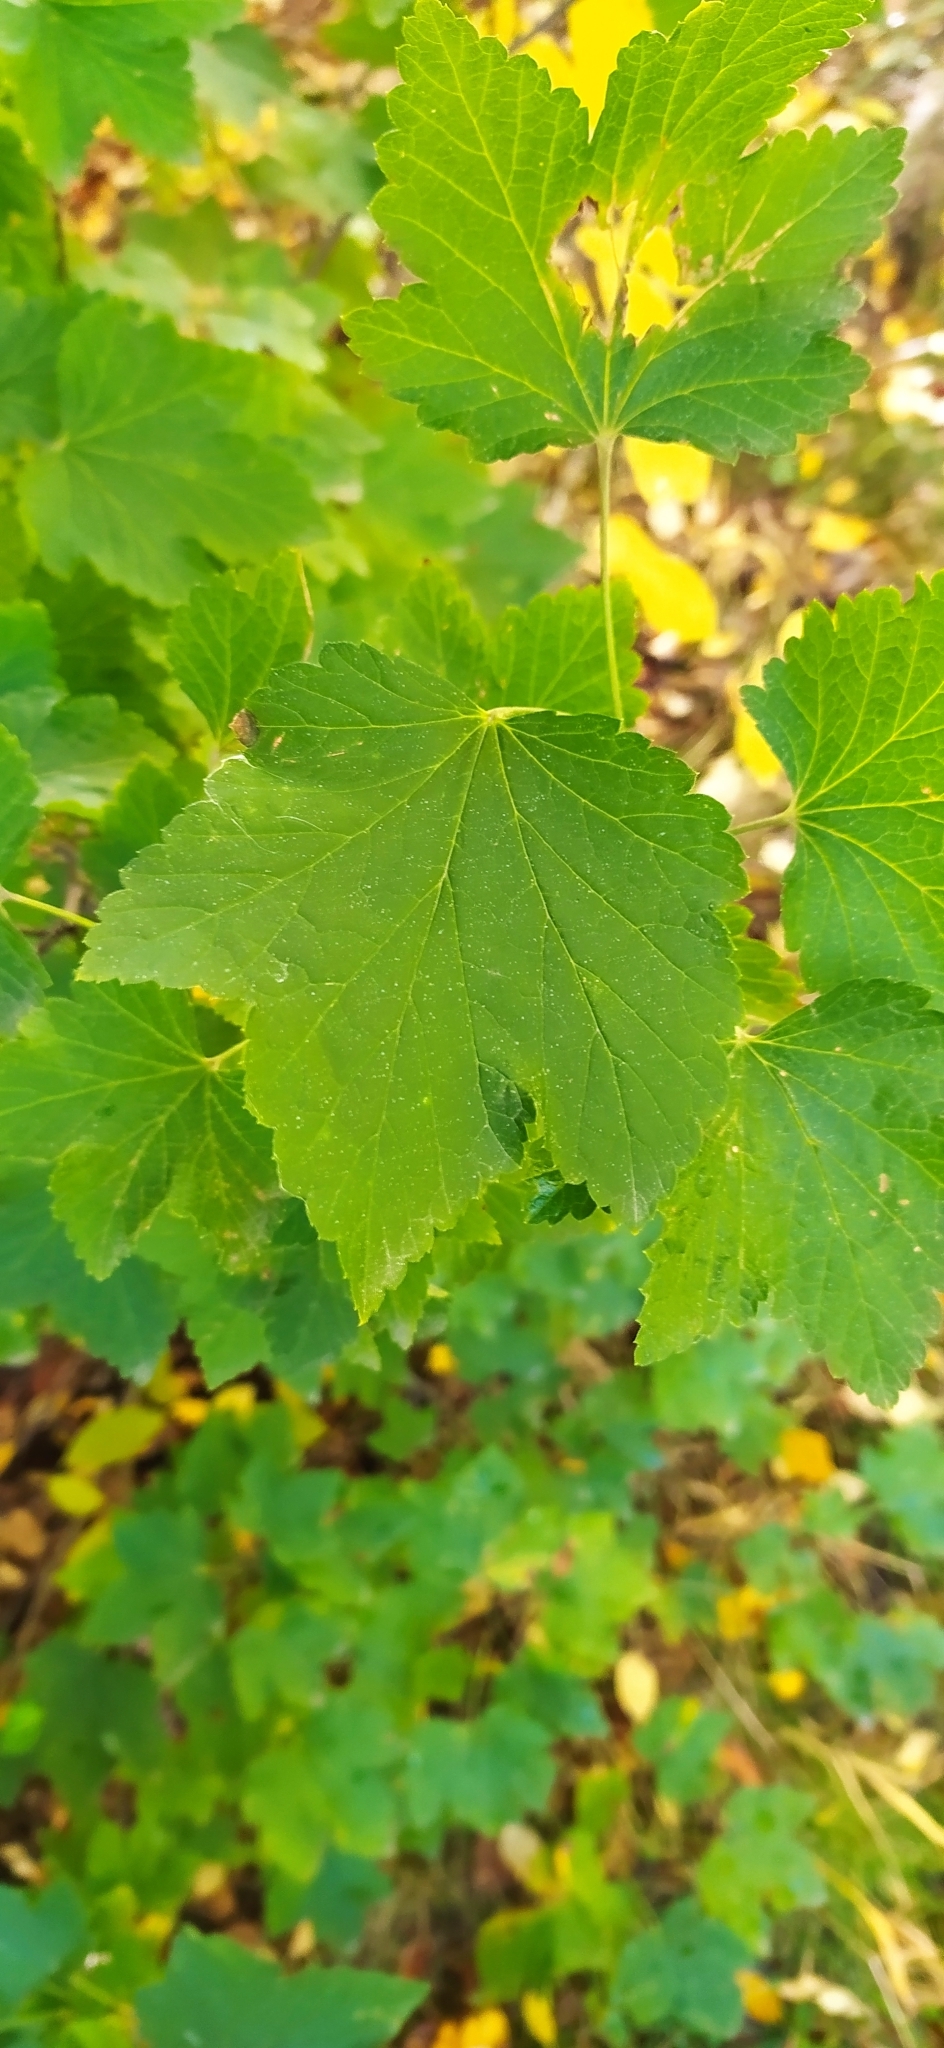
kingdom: Plantae
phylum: Tracheophyta
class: Magnoliopsida
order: Saxifragales
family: Grossulariaceae
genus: Ribes
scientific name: Ribes spicatum
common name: Downy currant
